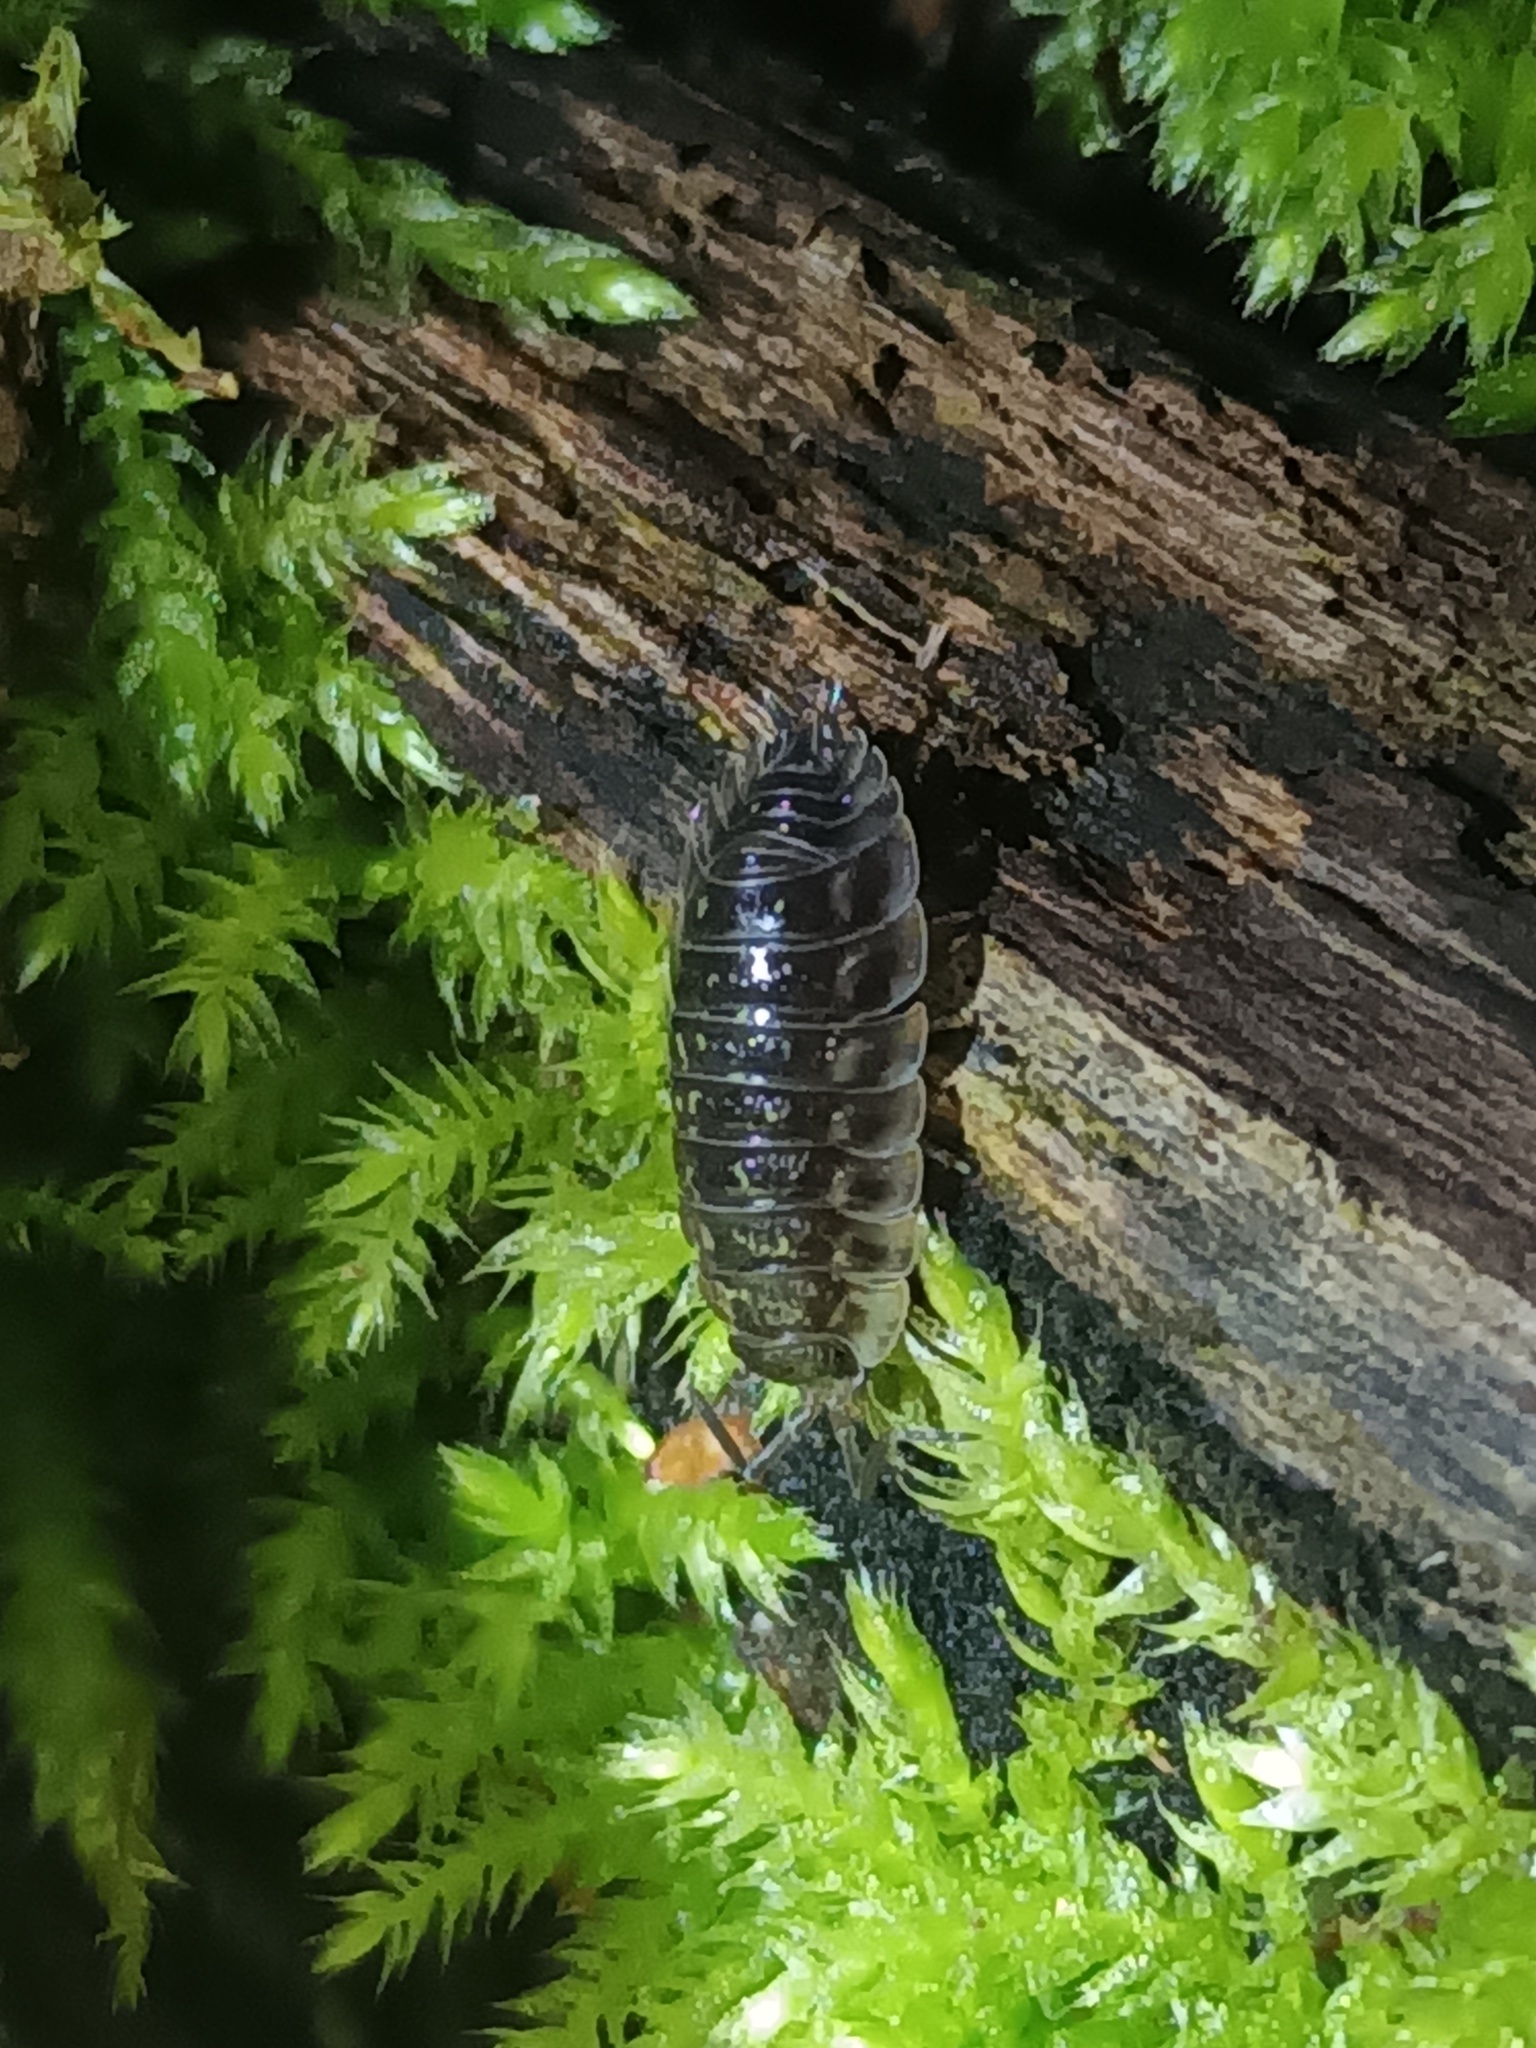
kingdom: Animalia
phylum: Arthropoda
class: Malacostraca
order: Isopoda
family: Oniscidae
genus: Oniscus
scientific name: Oniscus asellus
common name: Common shiny woodlouse
